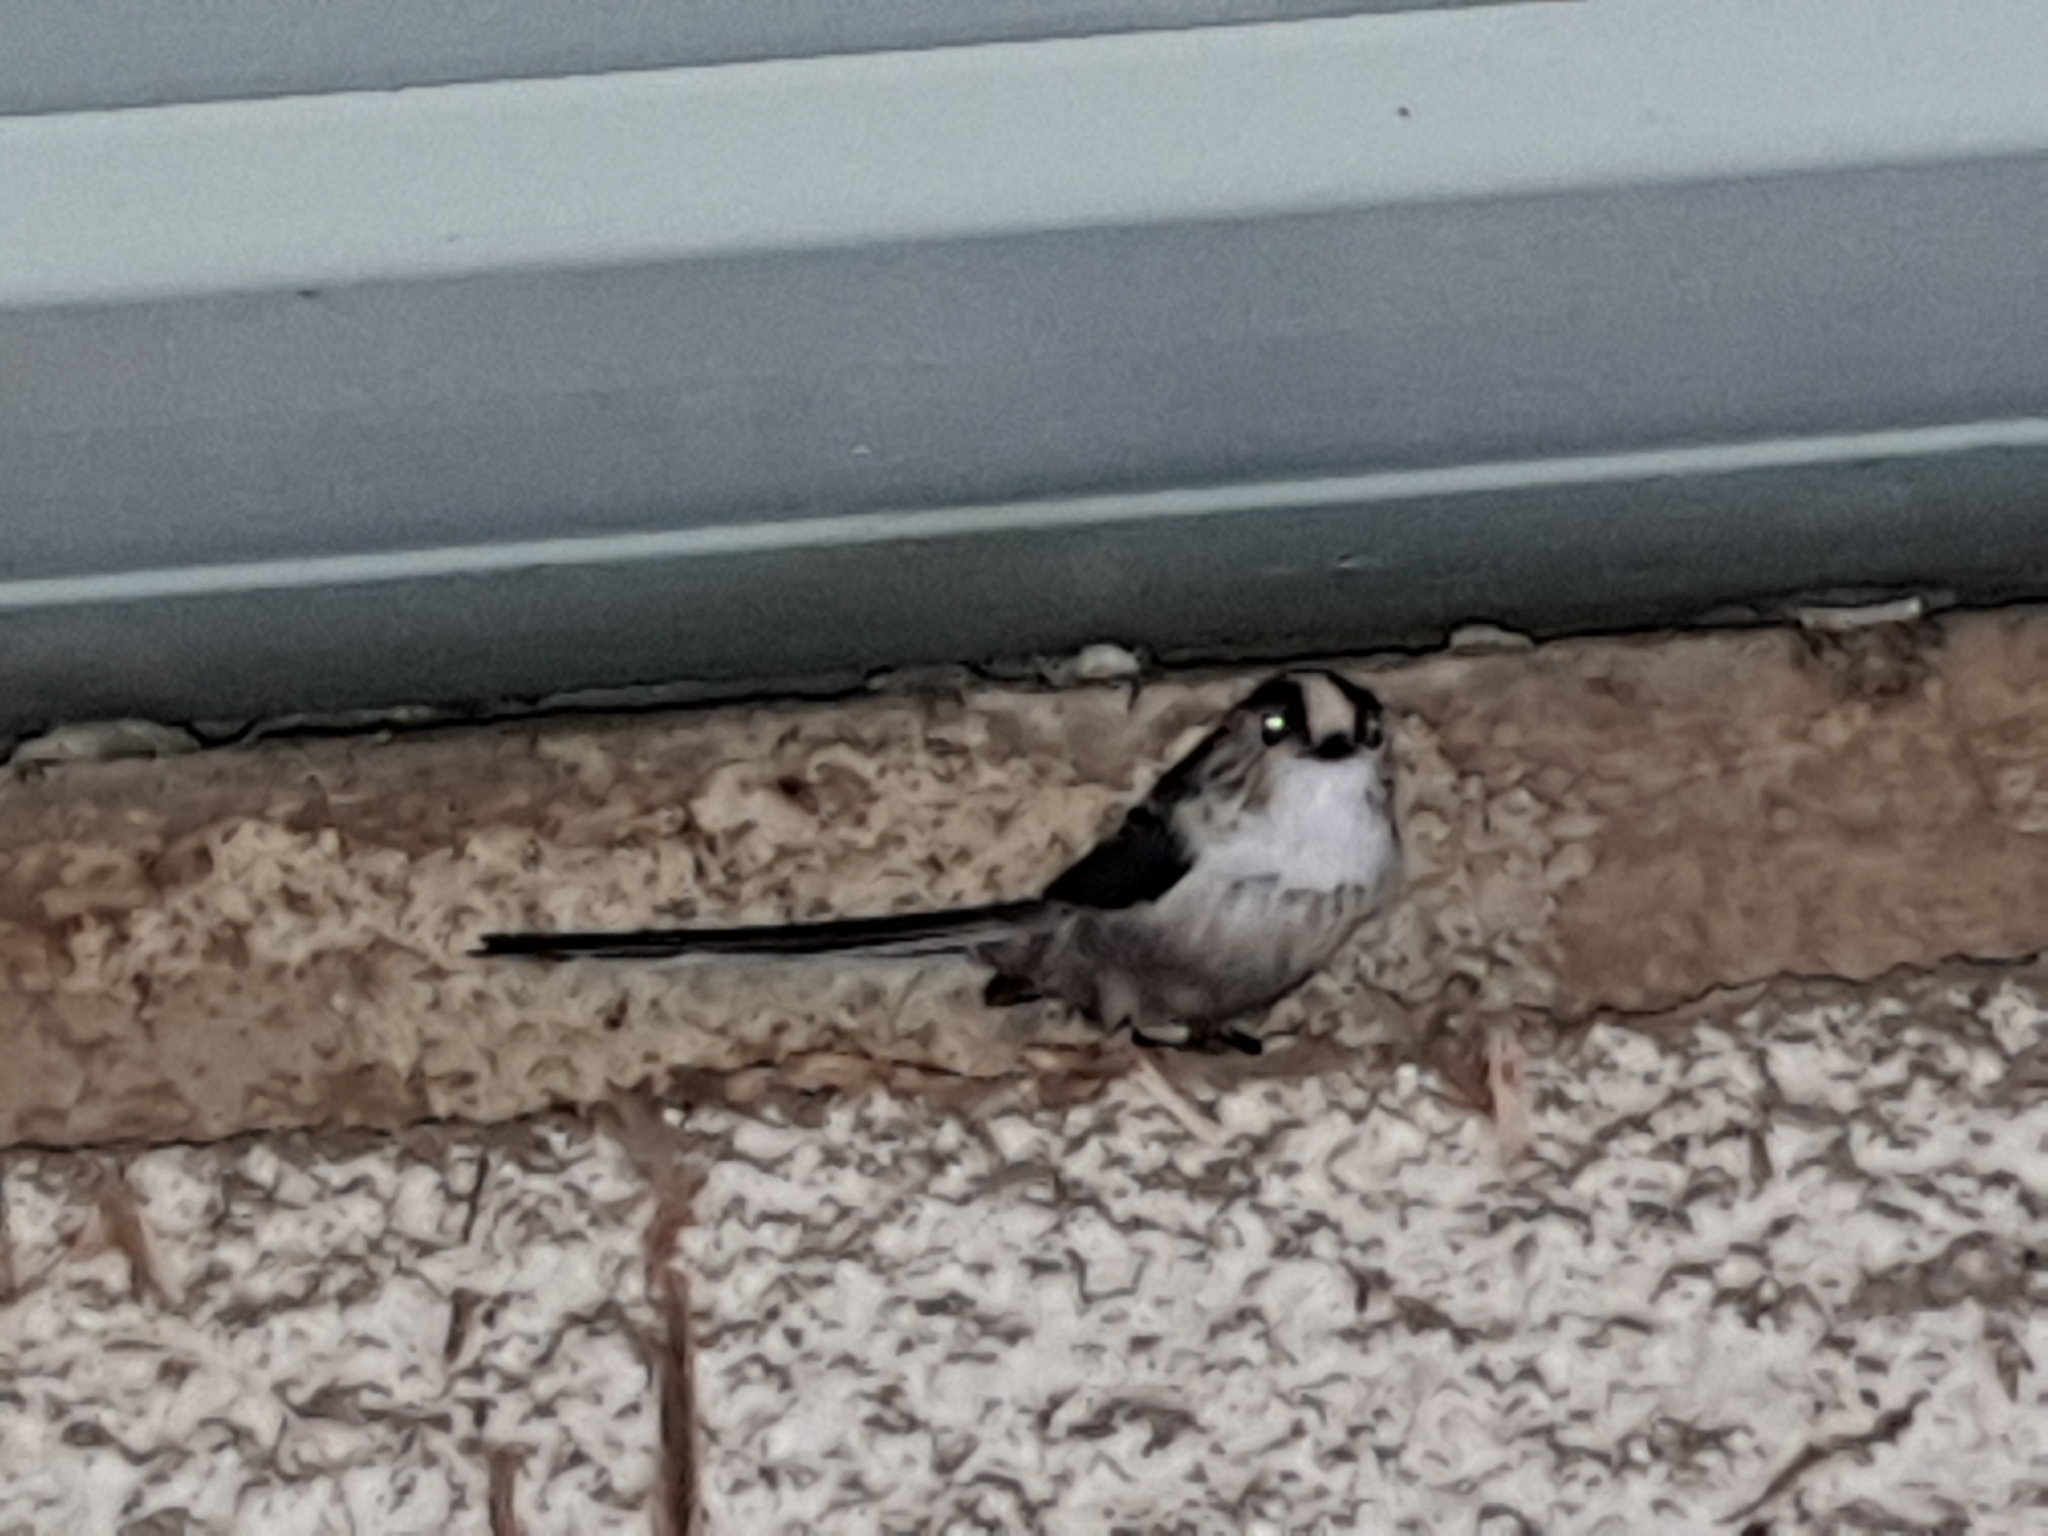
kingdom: Animalia
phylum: Chordata
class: Aves
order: Passeriformes
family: Aegithalidae
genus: Aegithalos
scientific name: Aegithalos caudatus
